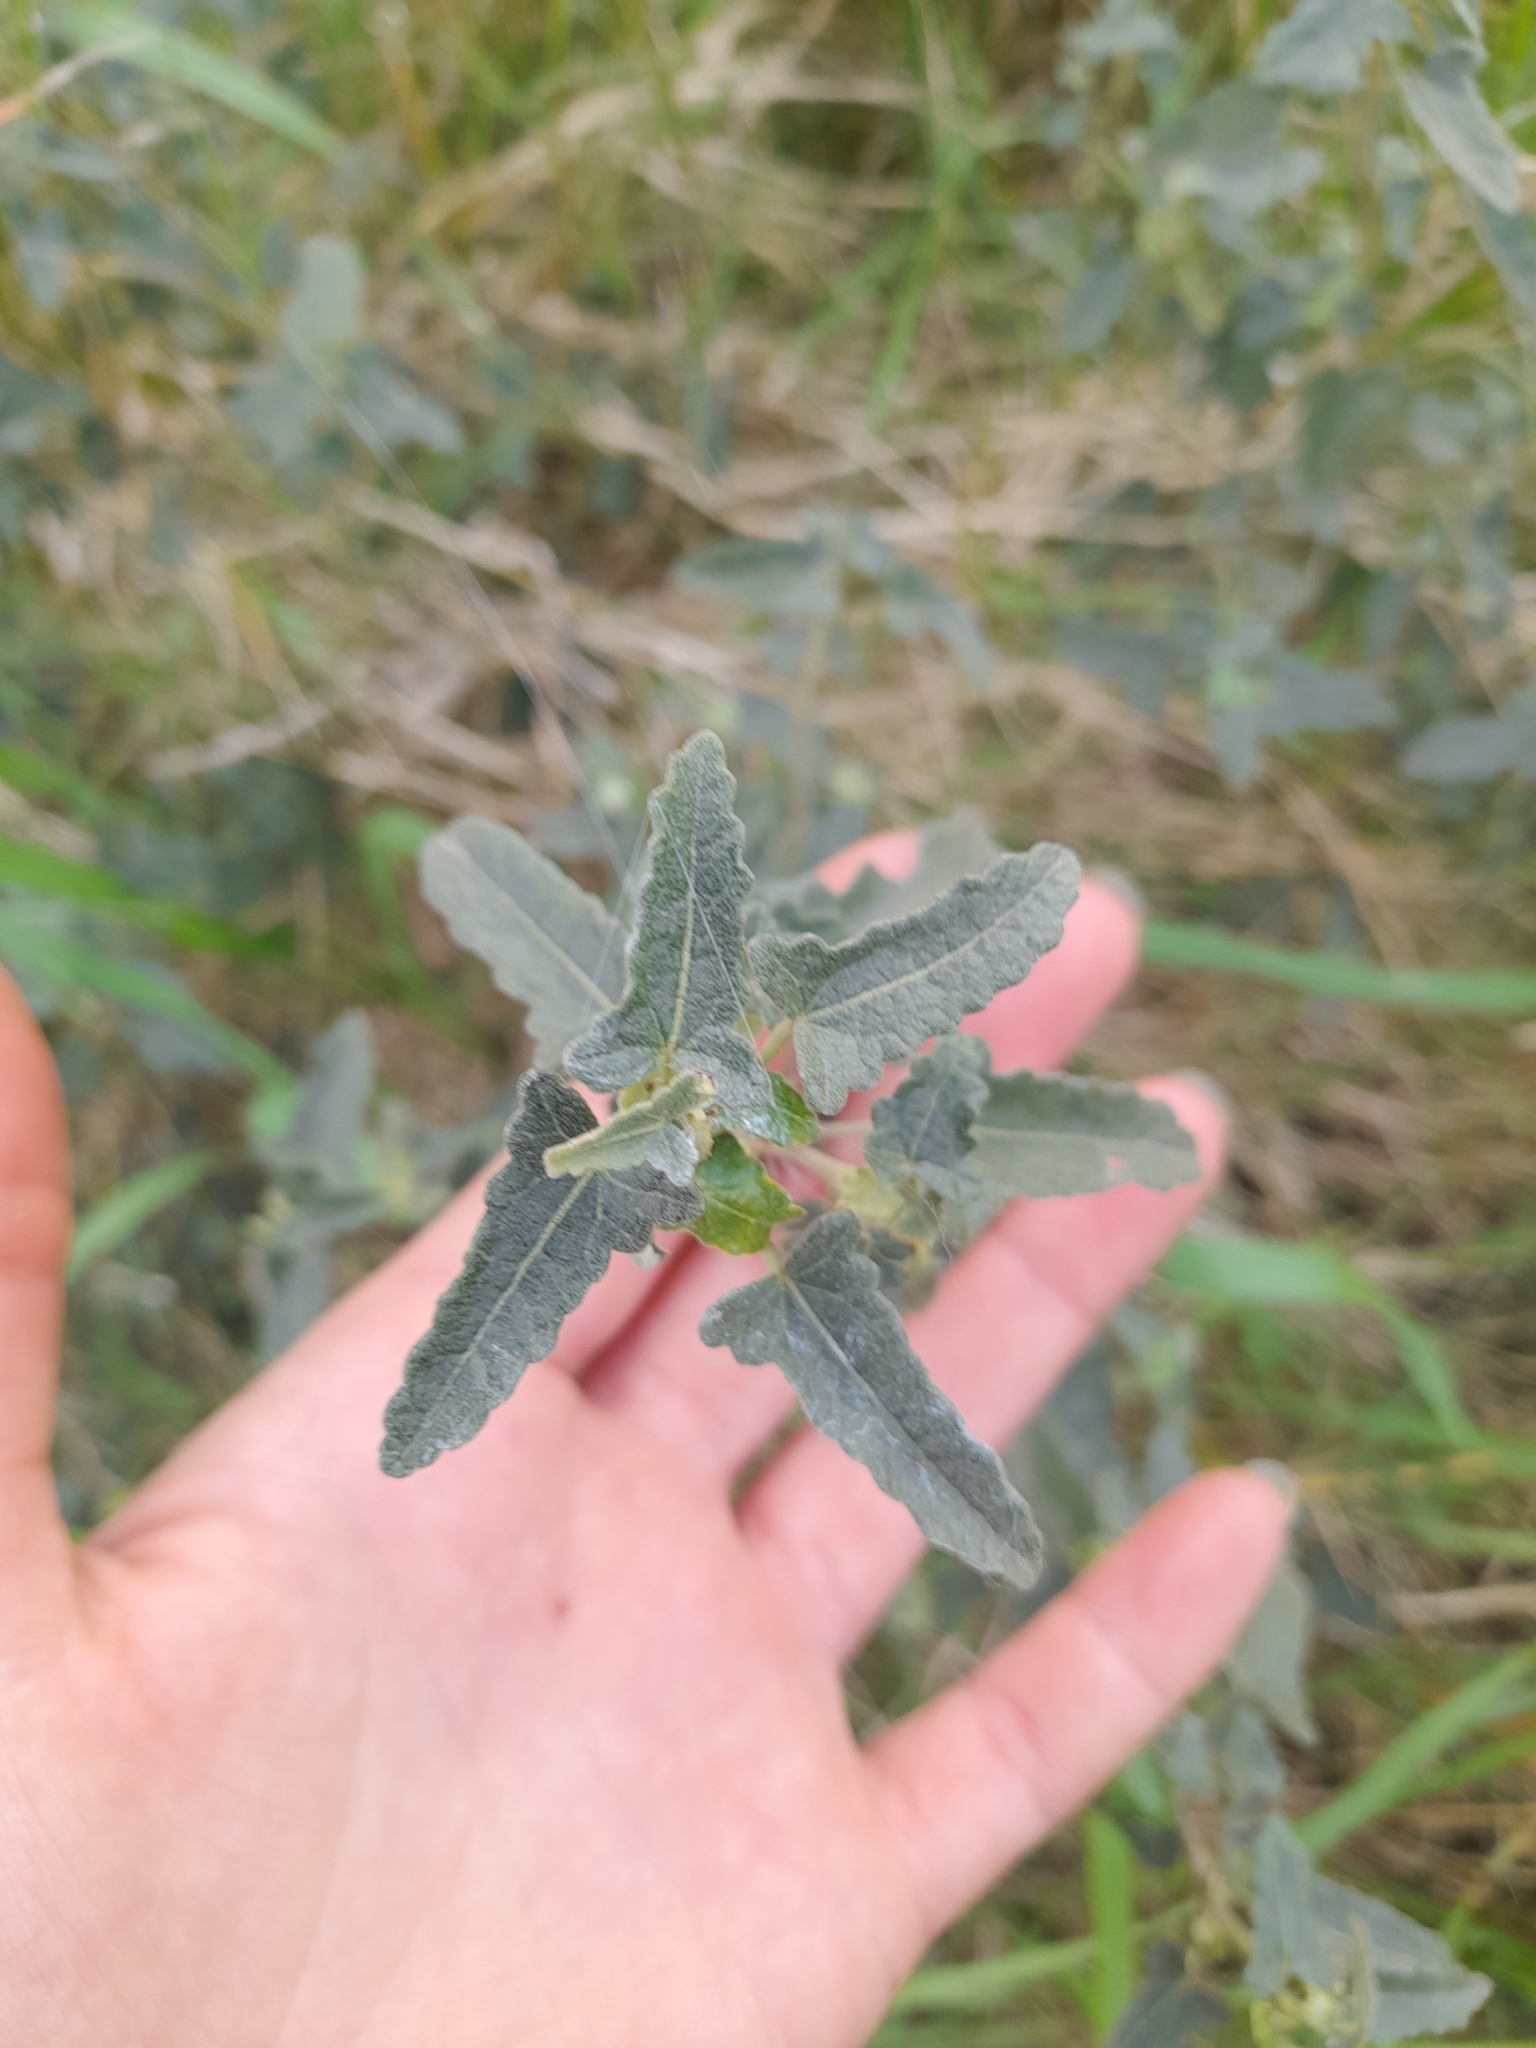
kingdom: Plantae
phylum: Tracheophyta
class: Magnoliopsida
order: Malvales
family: Malvaceae
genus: Pavonia
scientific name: Pavonia hastata
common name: Spearleaf swampmallow
